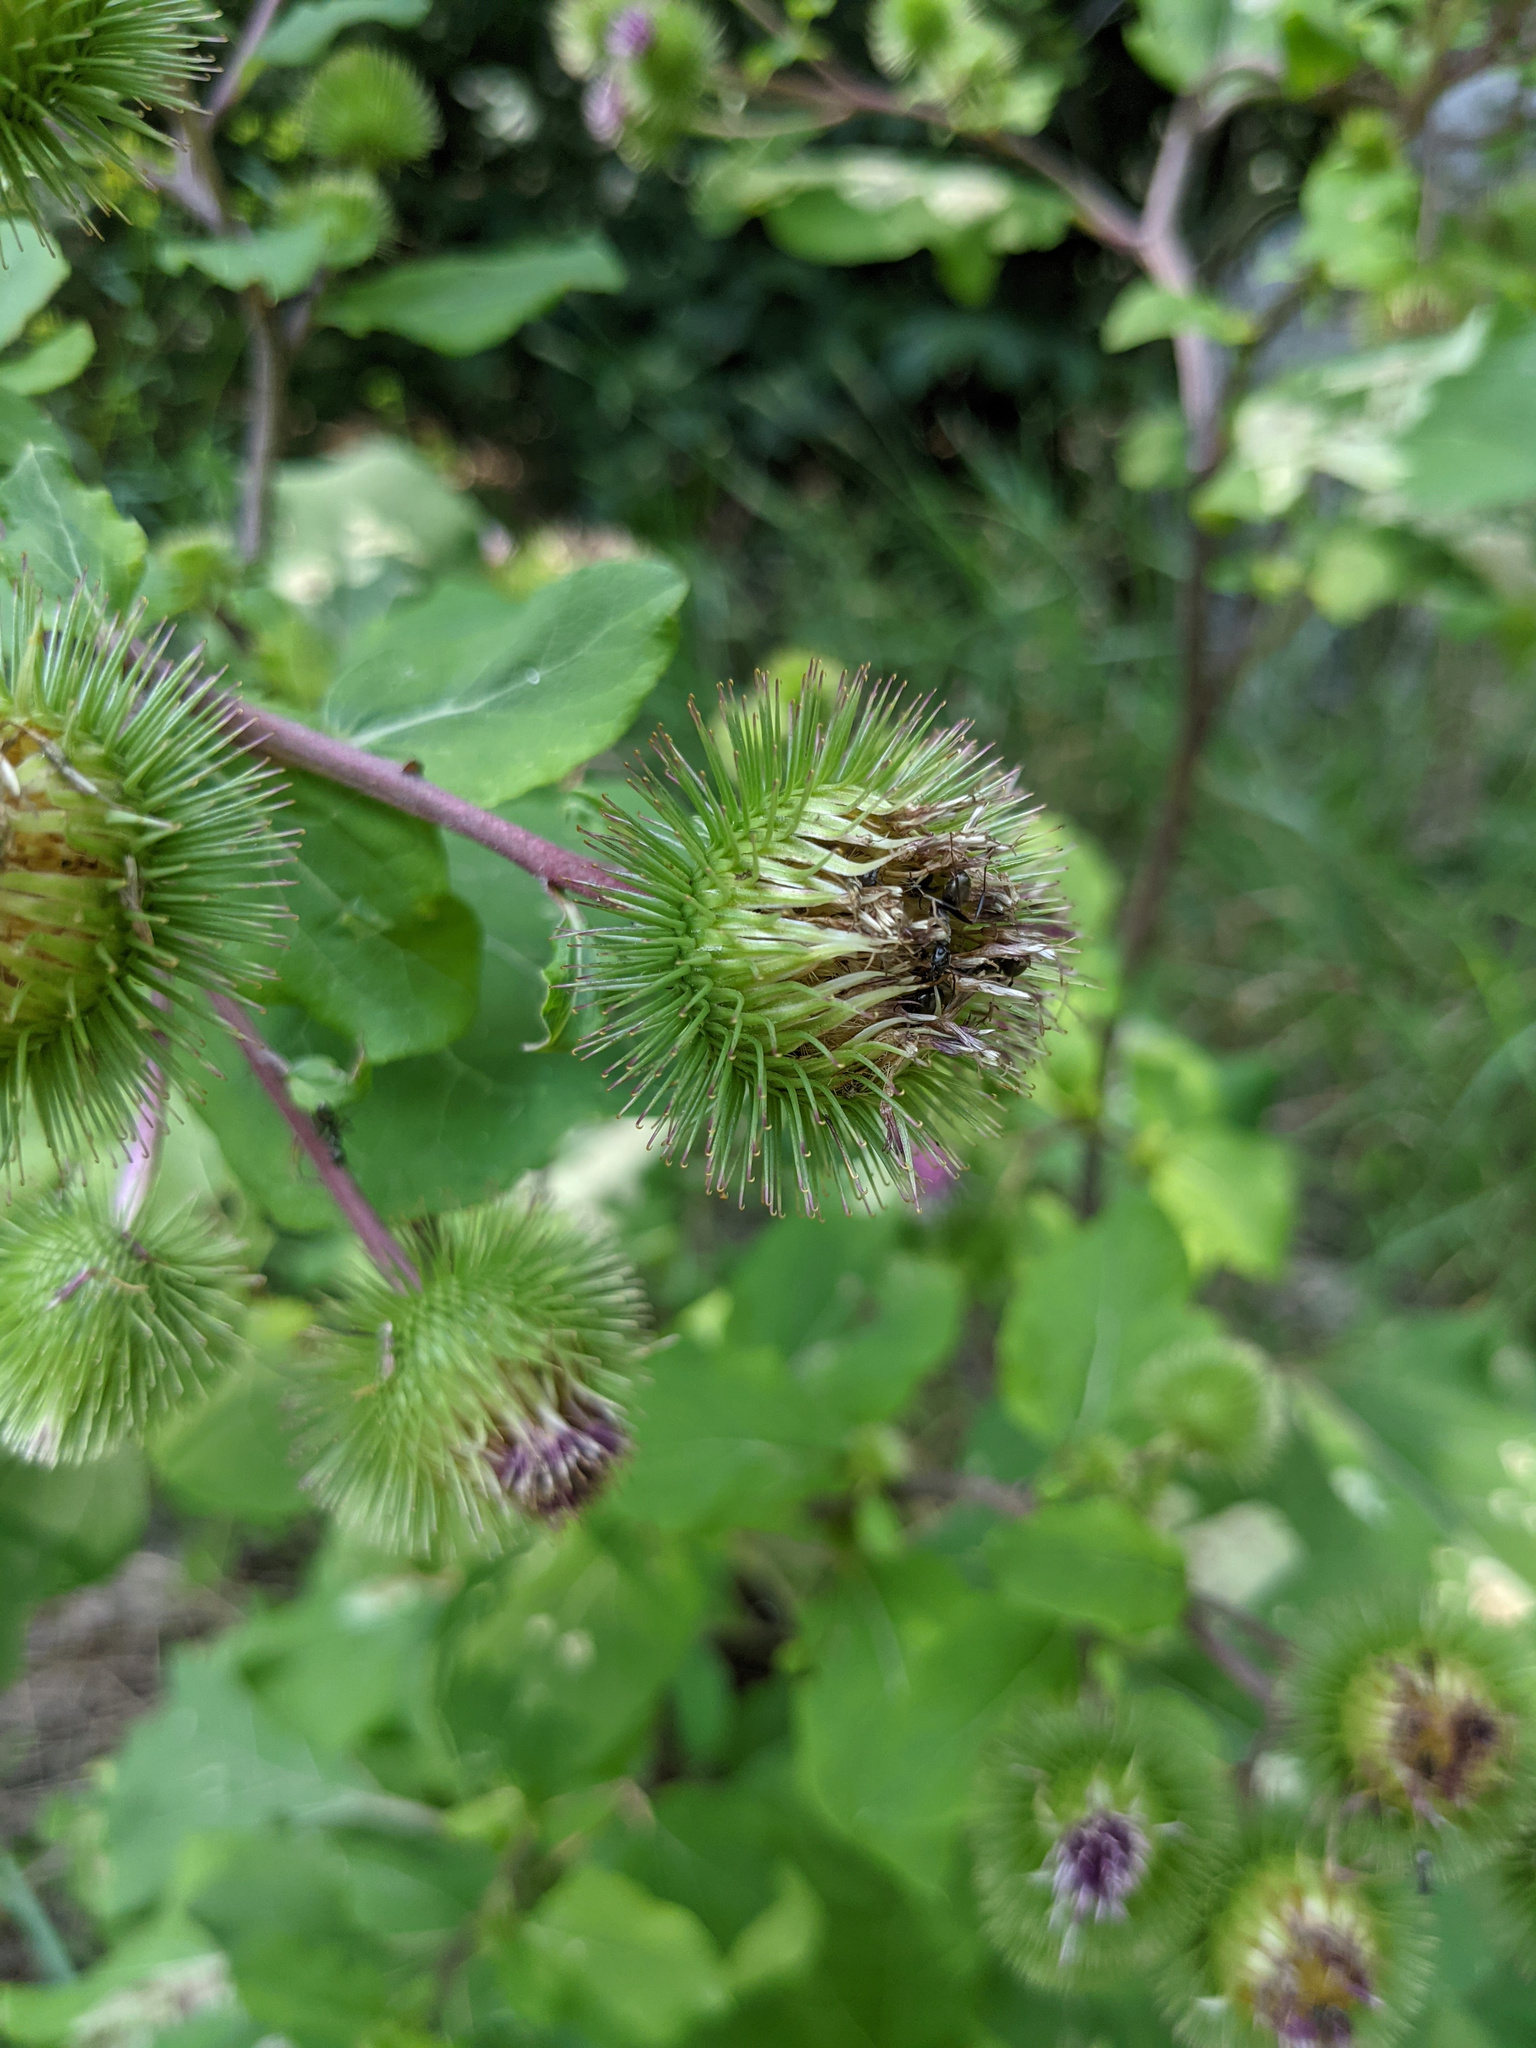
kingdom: Plantae
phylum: Tracheophyta
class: Magnoliopsida
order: Asterales
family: Asteraceae
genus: Arctium
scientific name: Arctium lappa
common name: Greater burdock
